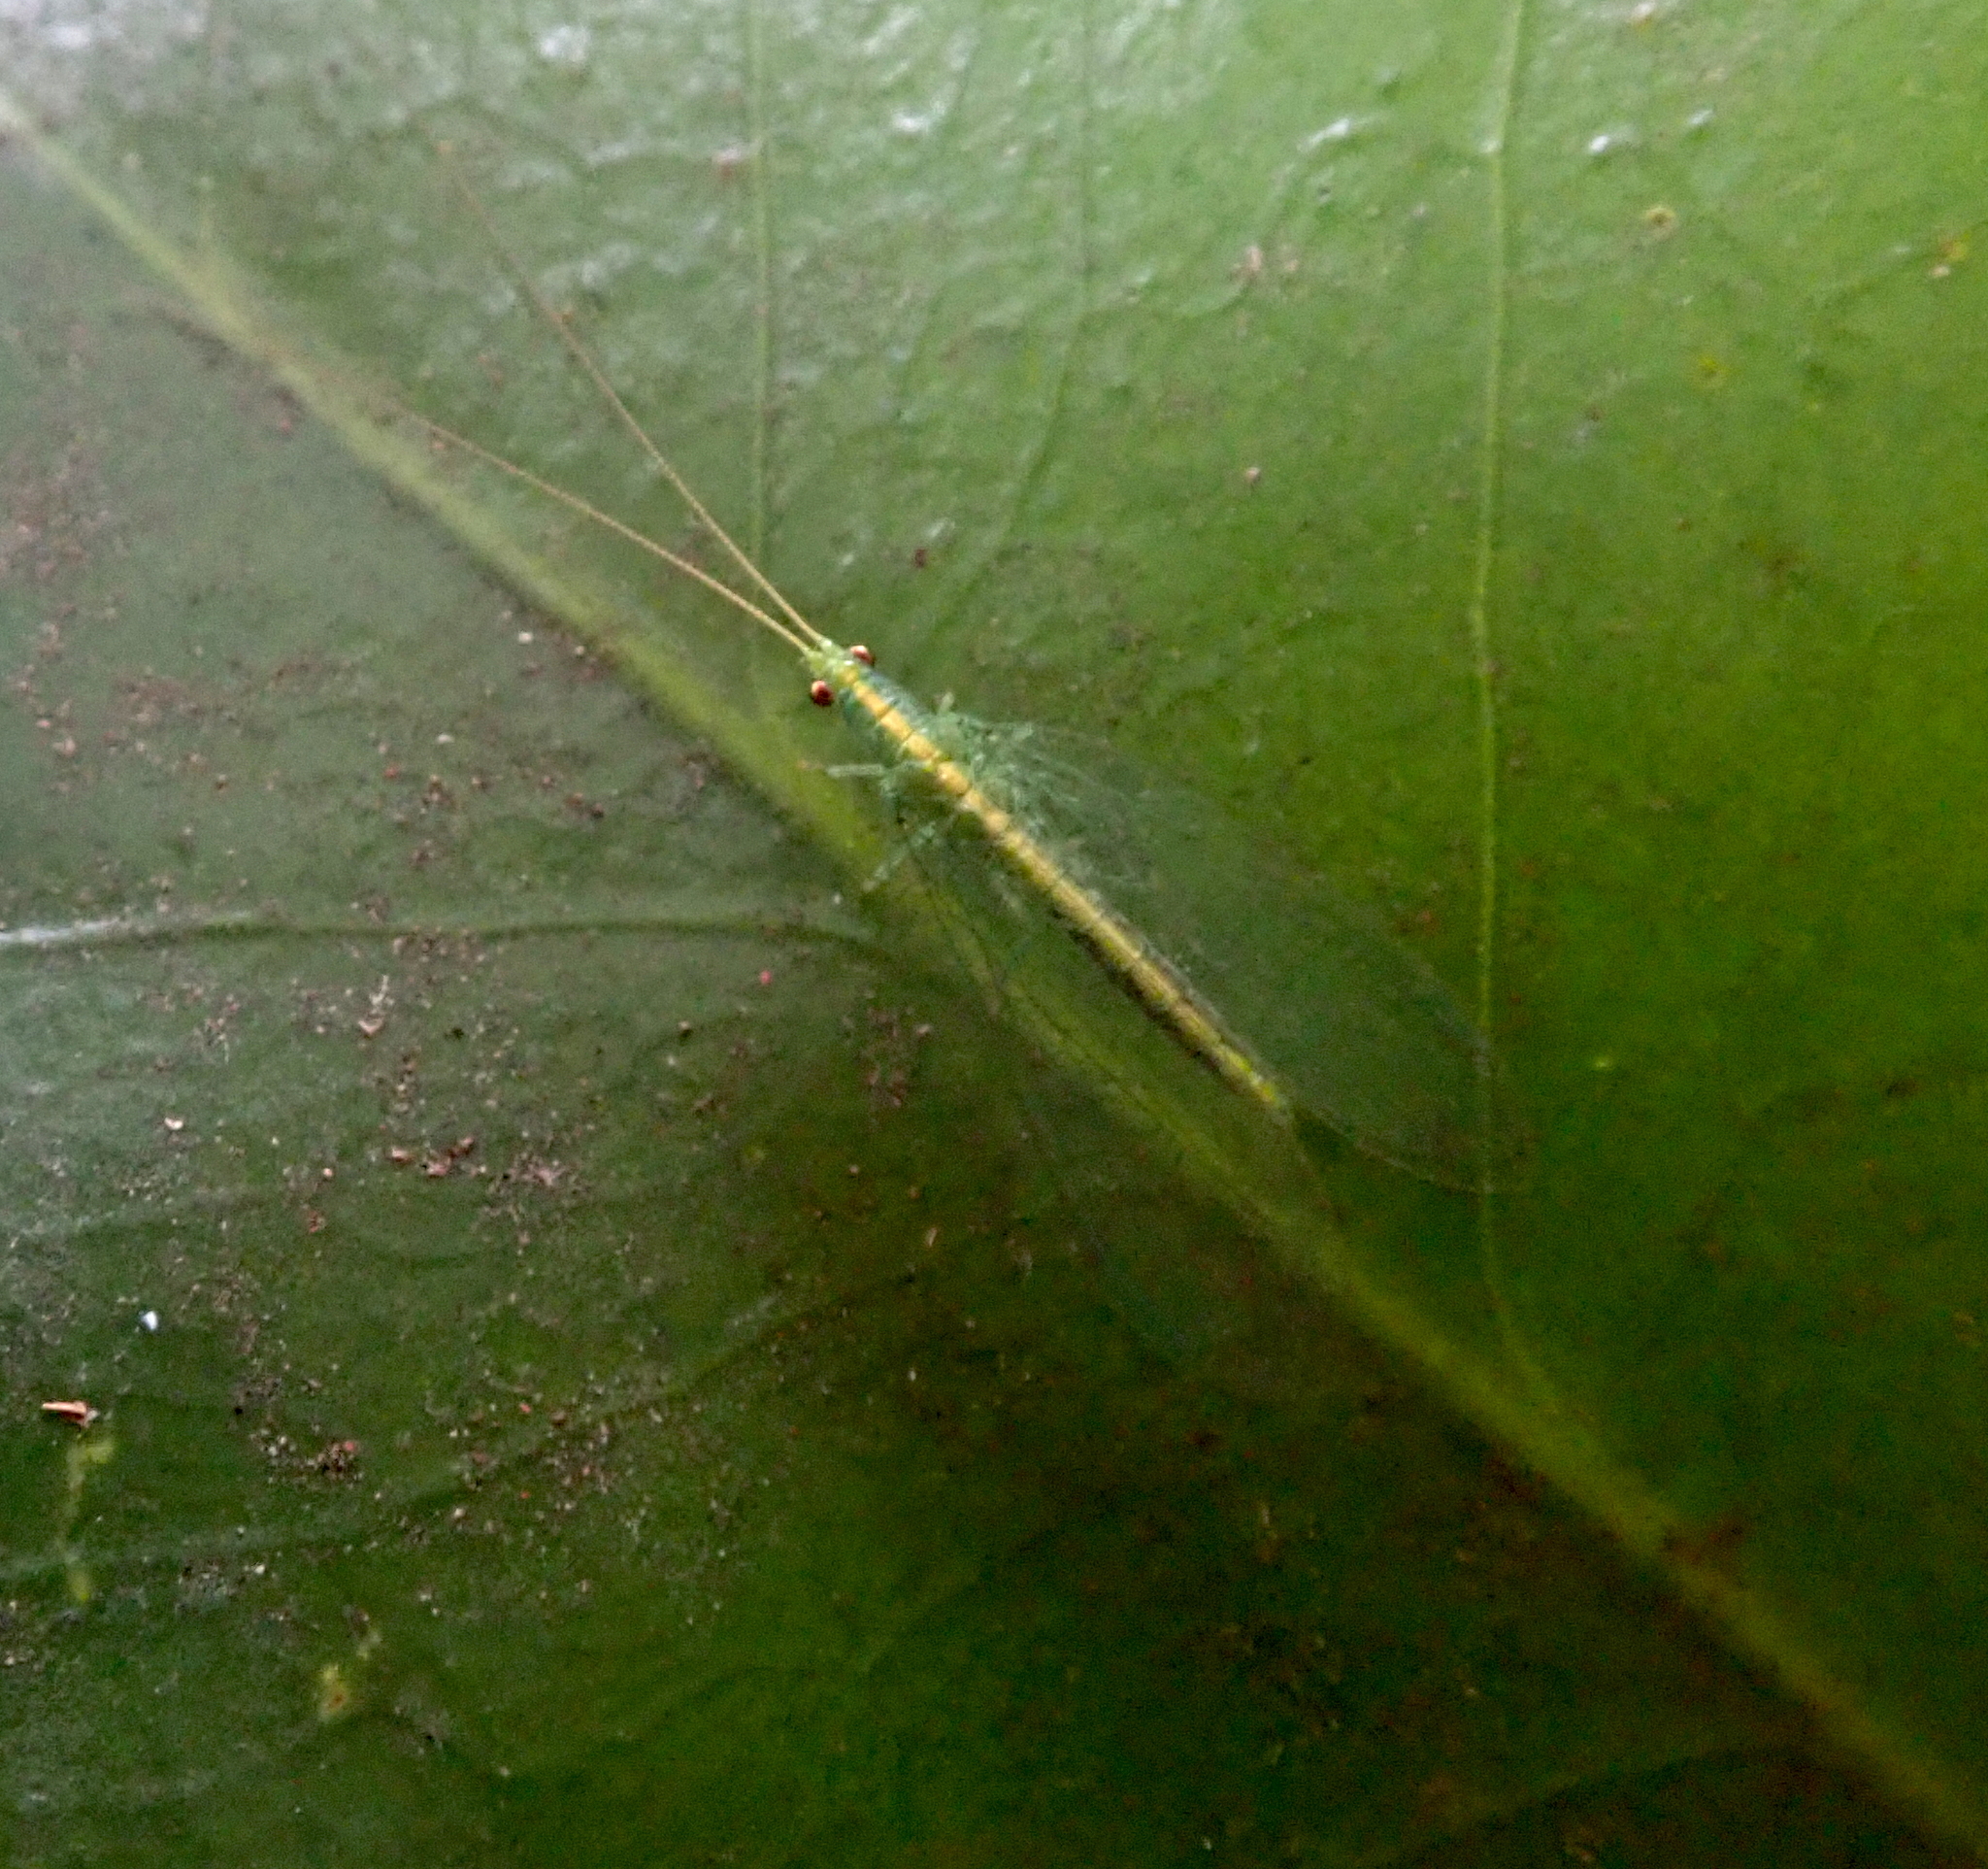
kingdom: Animalia
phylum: Arthropoda
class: Insecta
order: Neuroptera
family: Chrysopidae
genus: Mallada
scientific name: Mallada basalis
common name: Green lacewing
